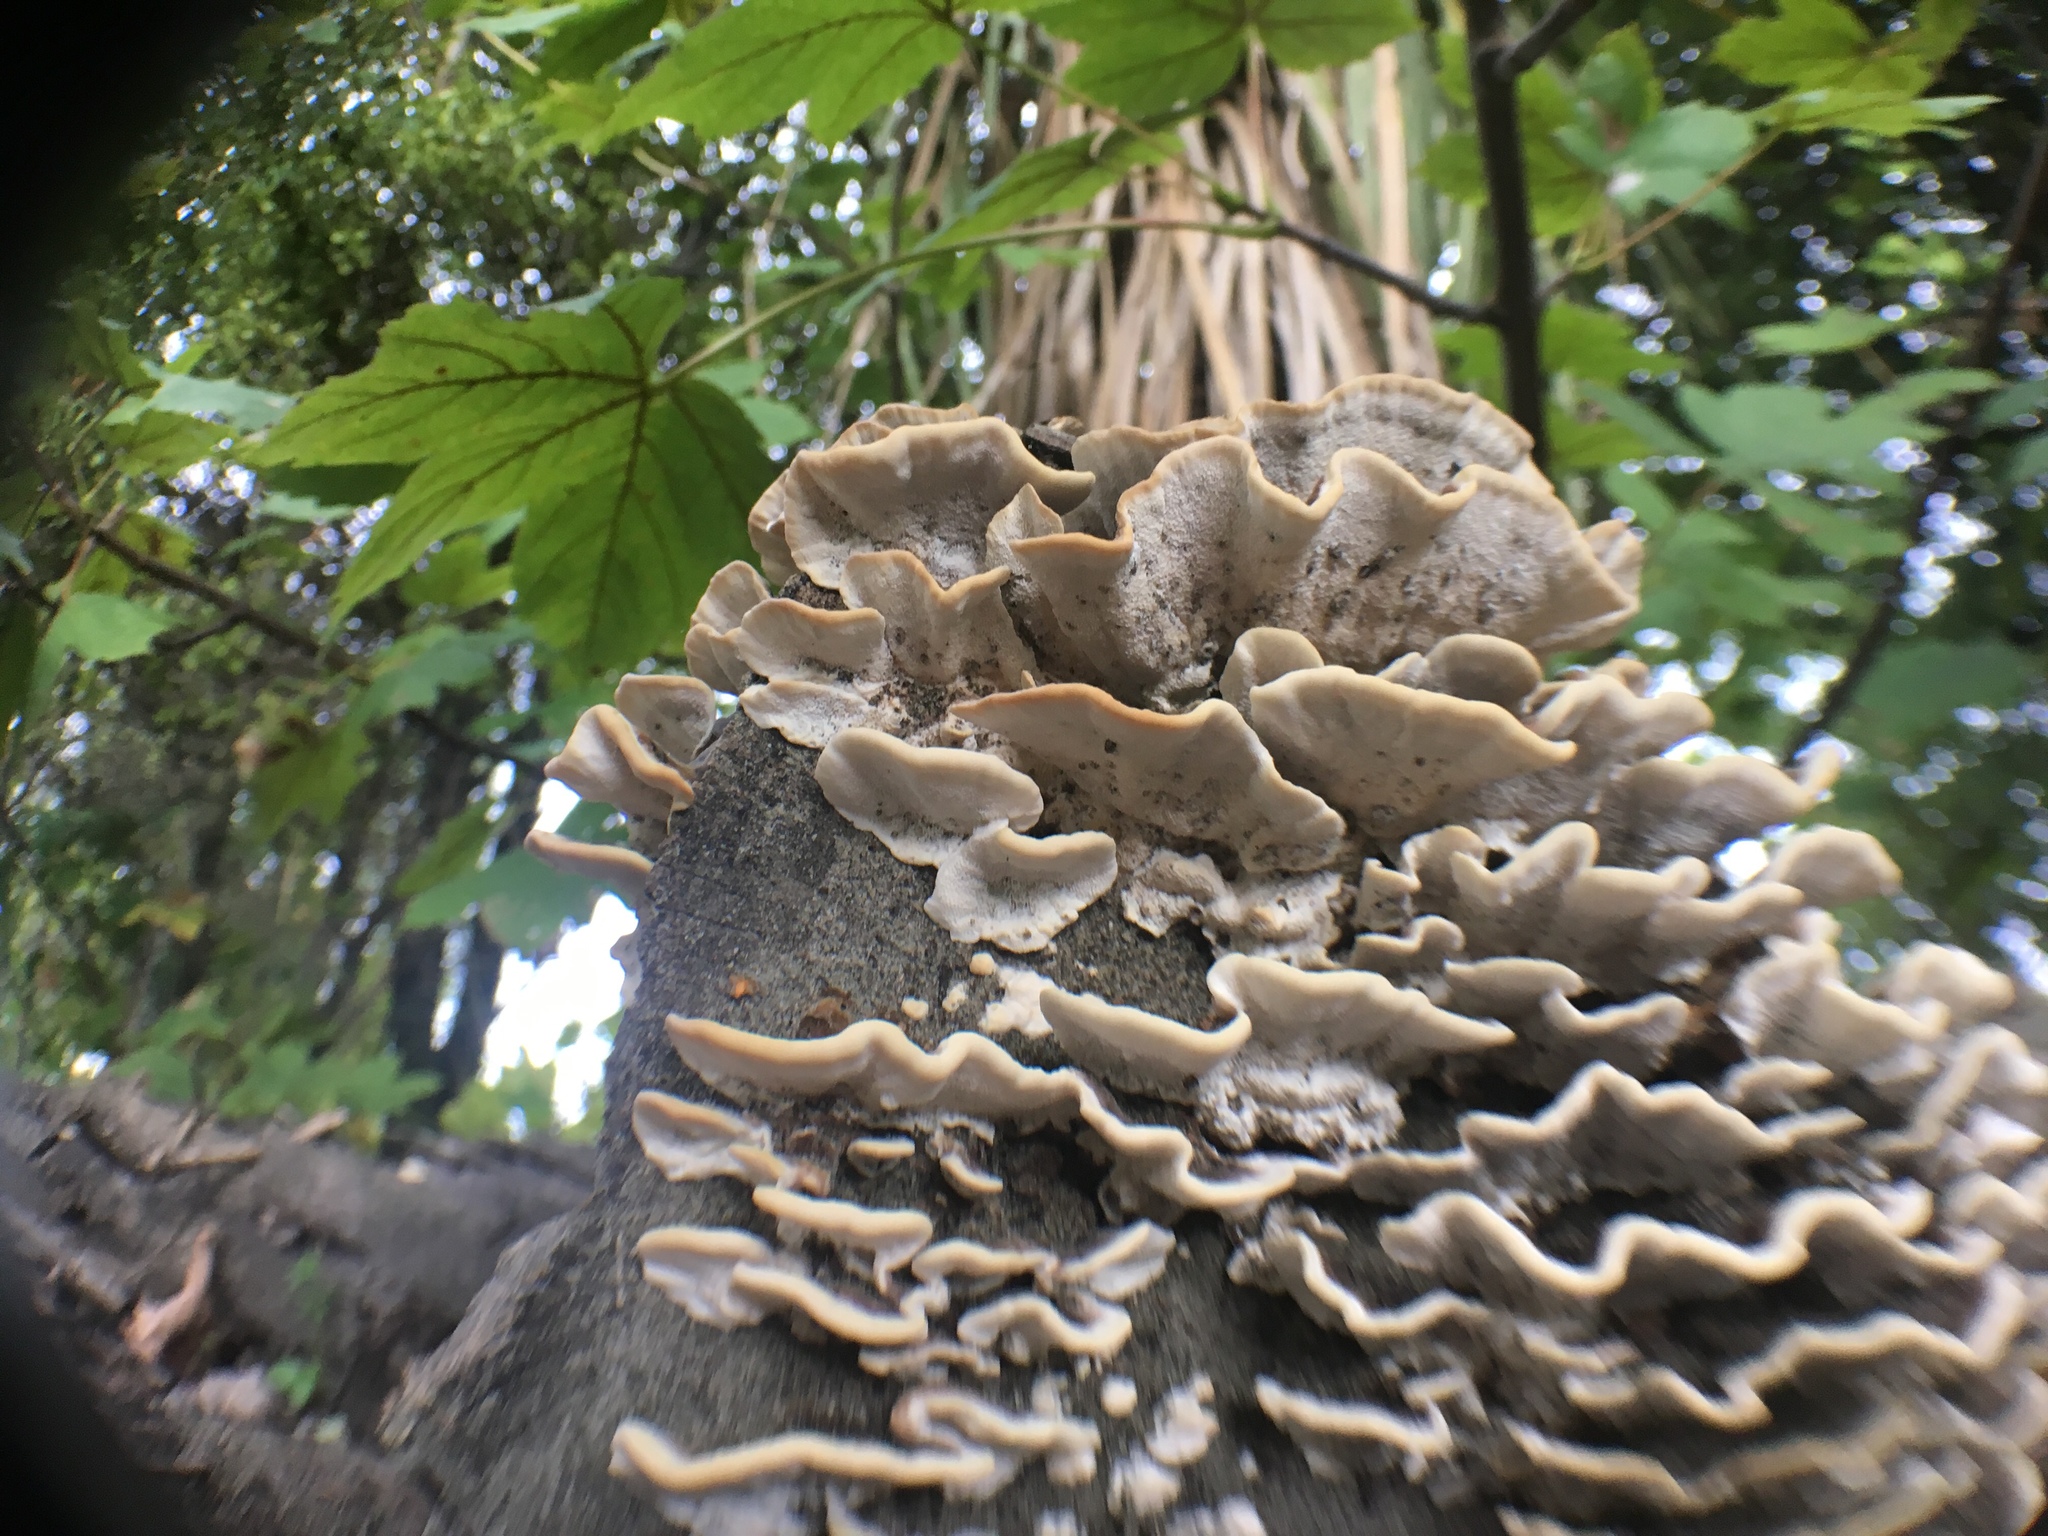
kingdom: Fungi
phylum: Basidiomycota
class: Agaricomycetes
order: Polyporales
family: Polyporaceae
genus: Trametes
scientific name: Trametes versicolor
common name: Turkeytail
